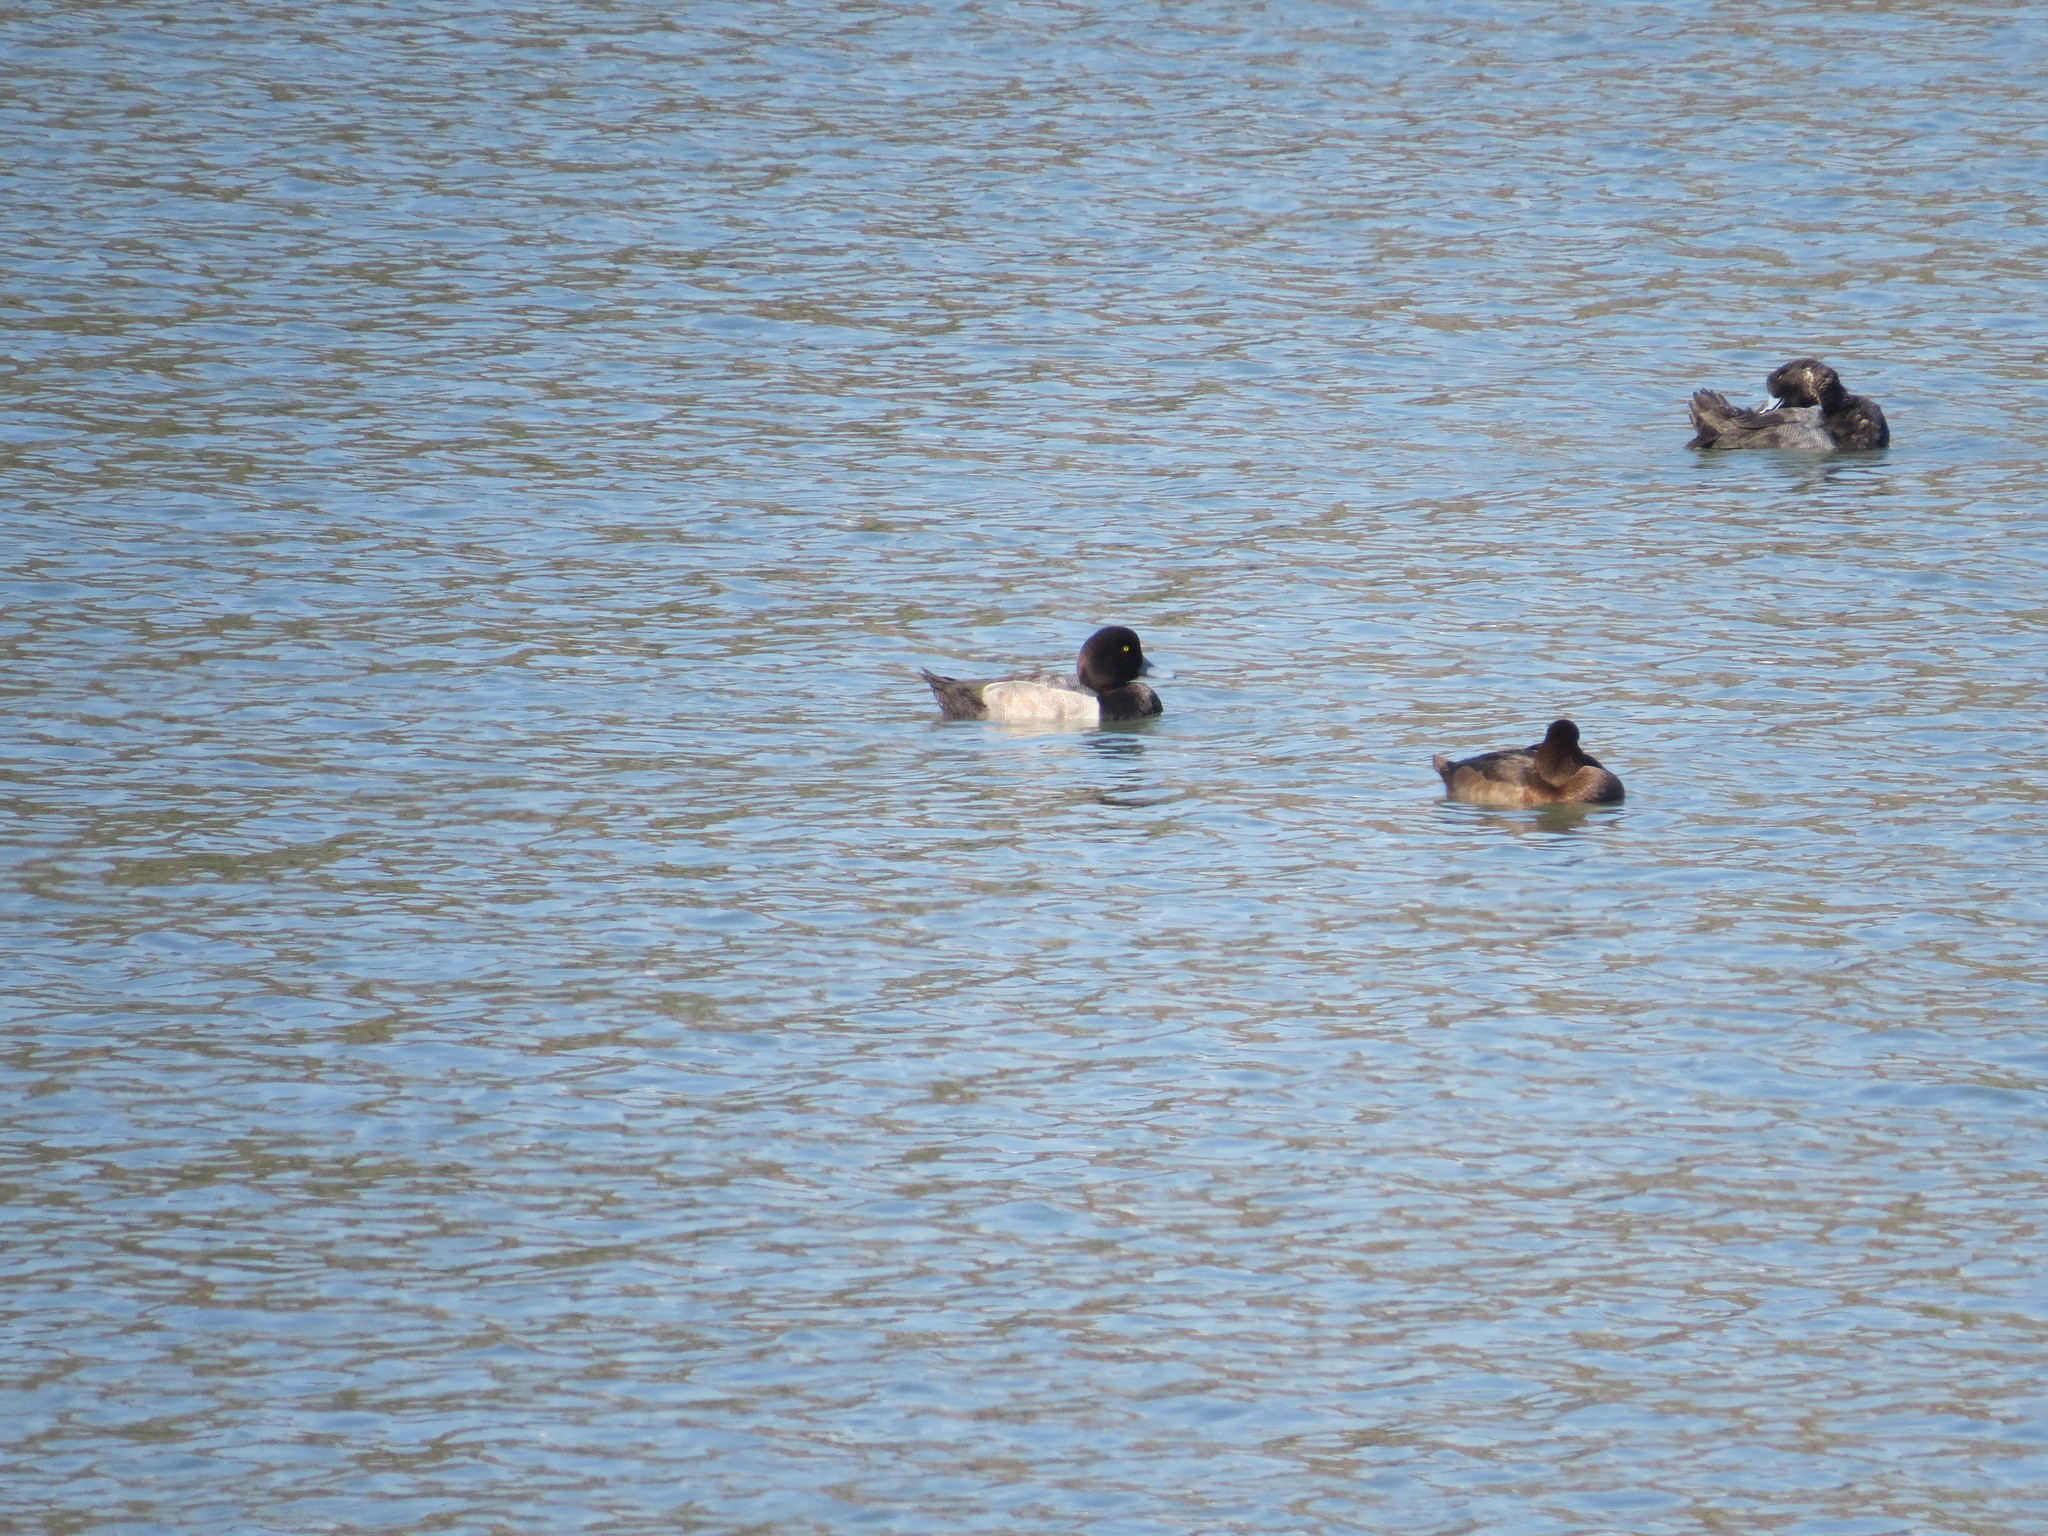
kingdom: Animalia
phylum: Chordata
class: Aves
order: Anseriformes
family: Anatidae
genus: Aythya
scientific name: Aythya marila
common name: Greater scaup
